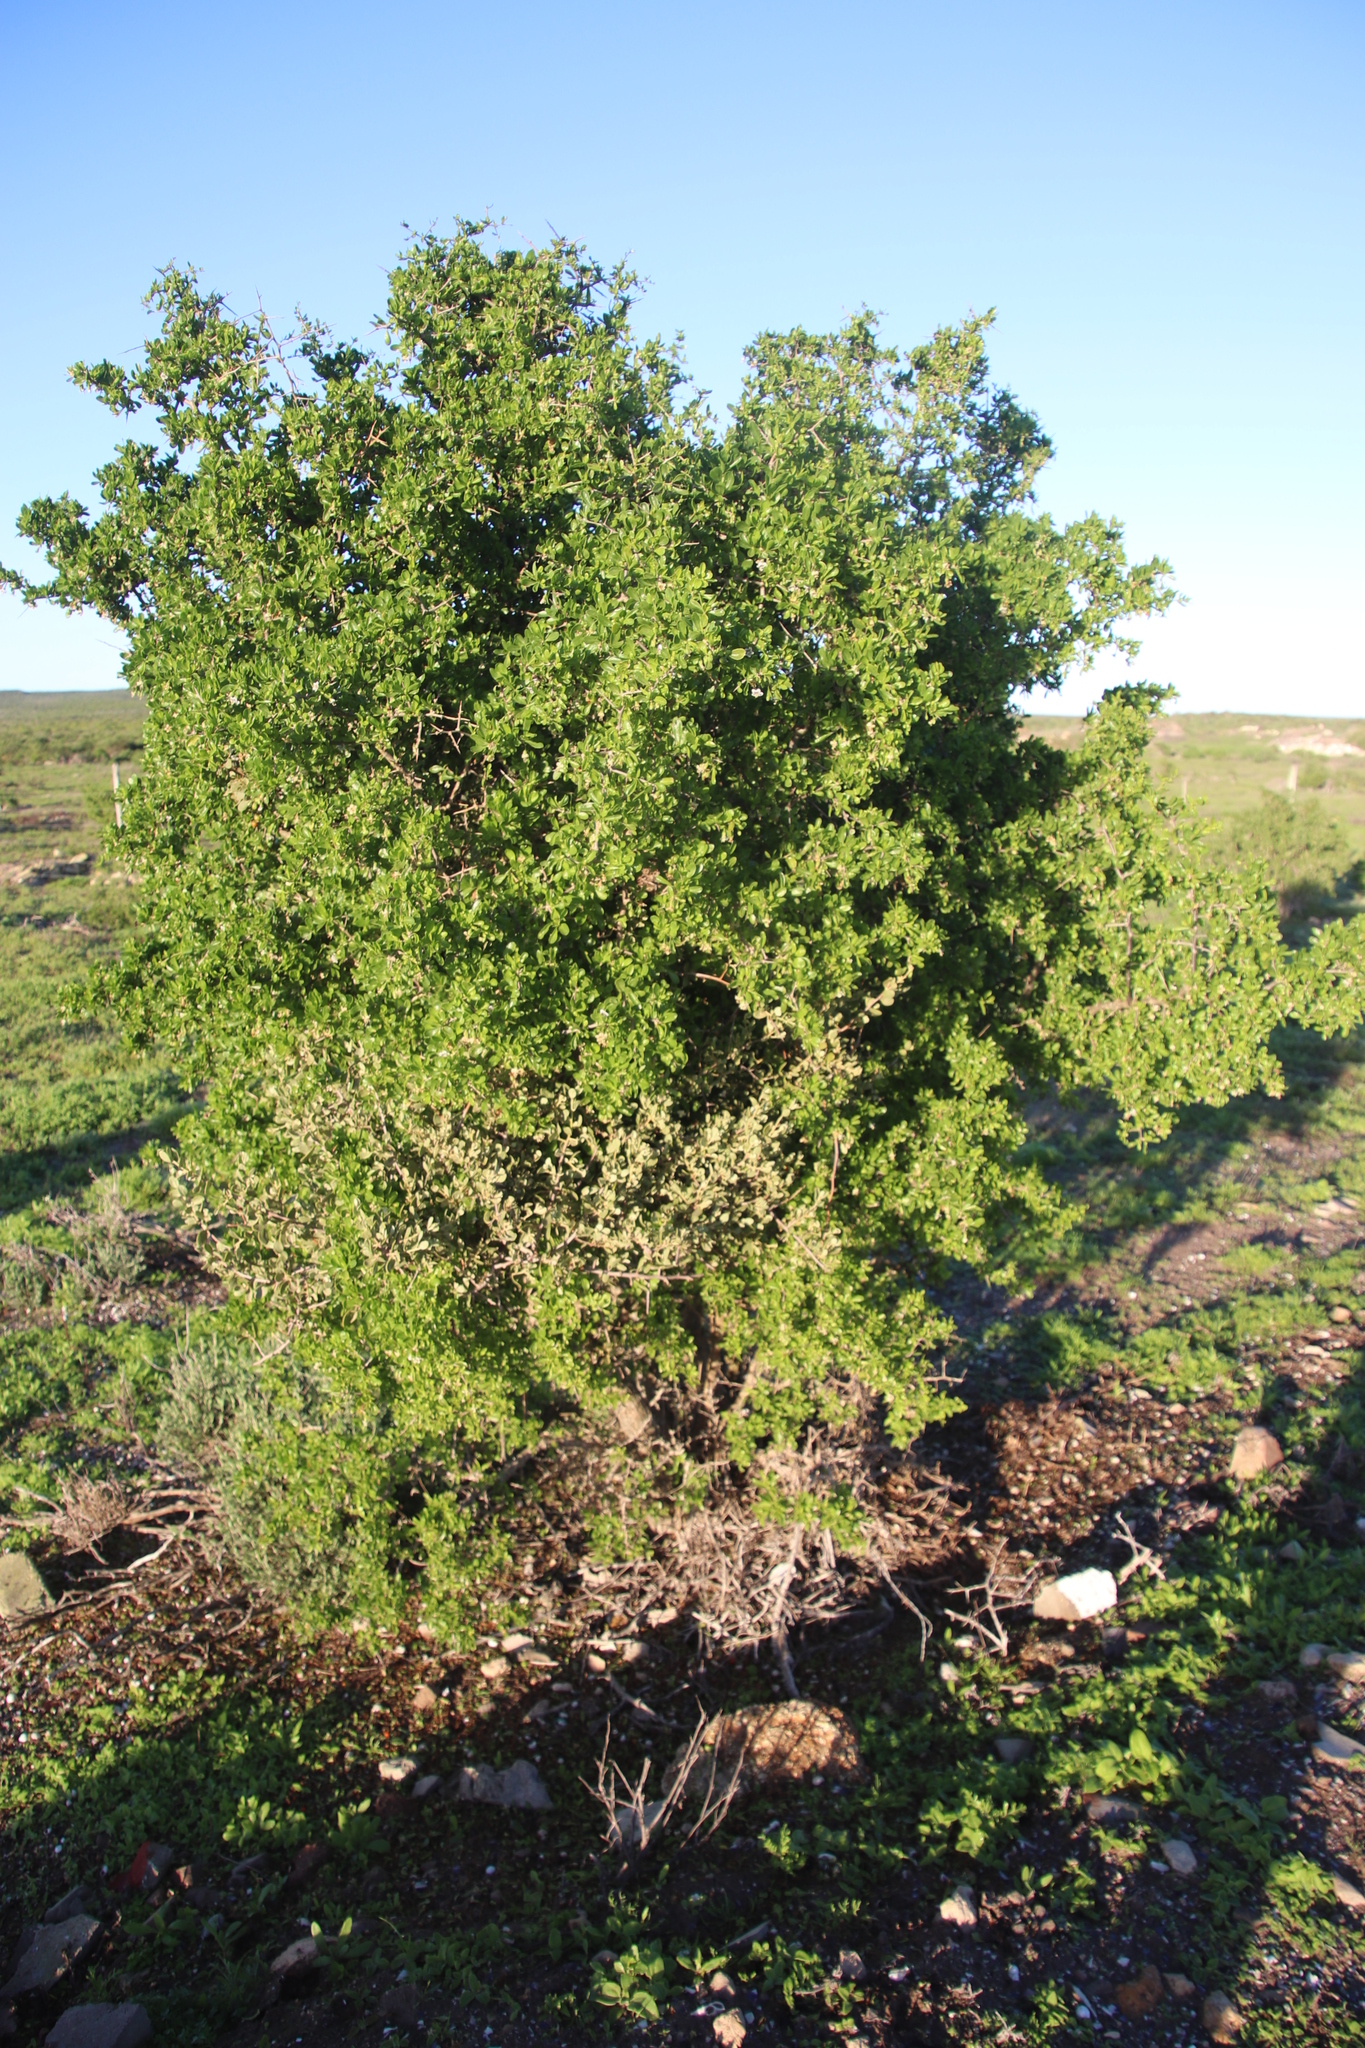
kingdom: Plantae
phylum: Tracheophyta
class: Magnoliopsida
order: Solanales
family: Solanaceae
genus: Lycium
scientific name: Lycium ferocissimum
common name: African boxthorn
